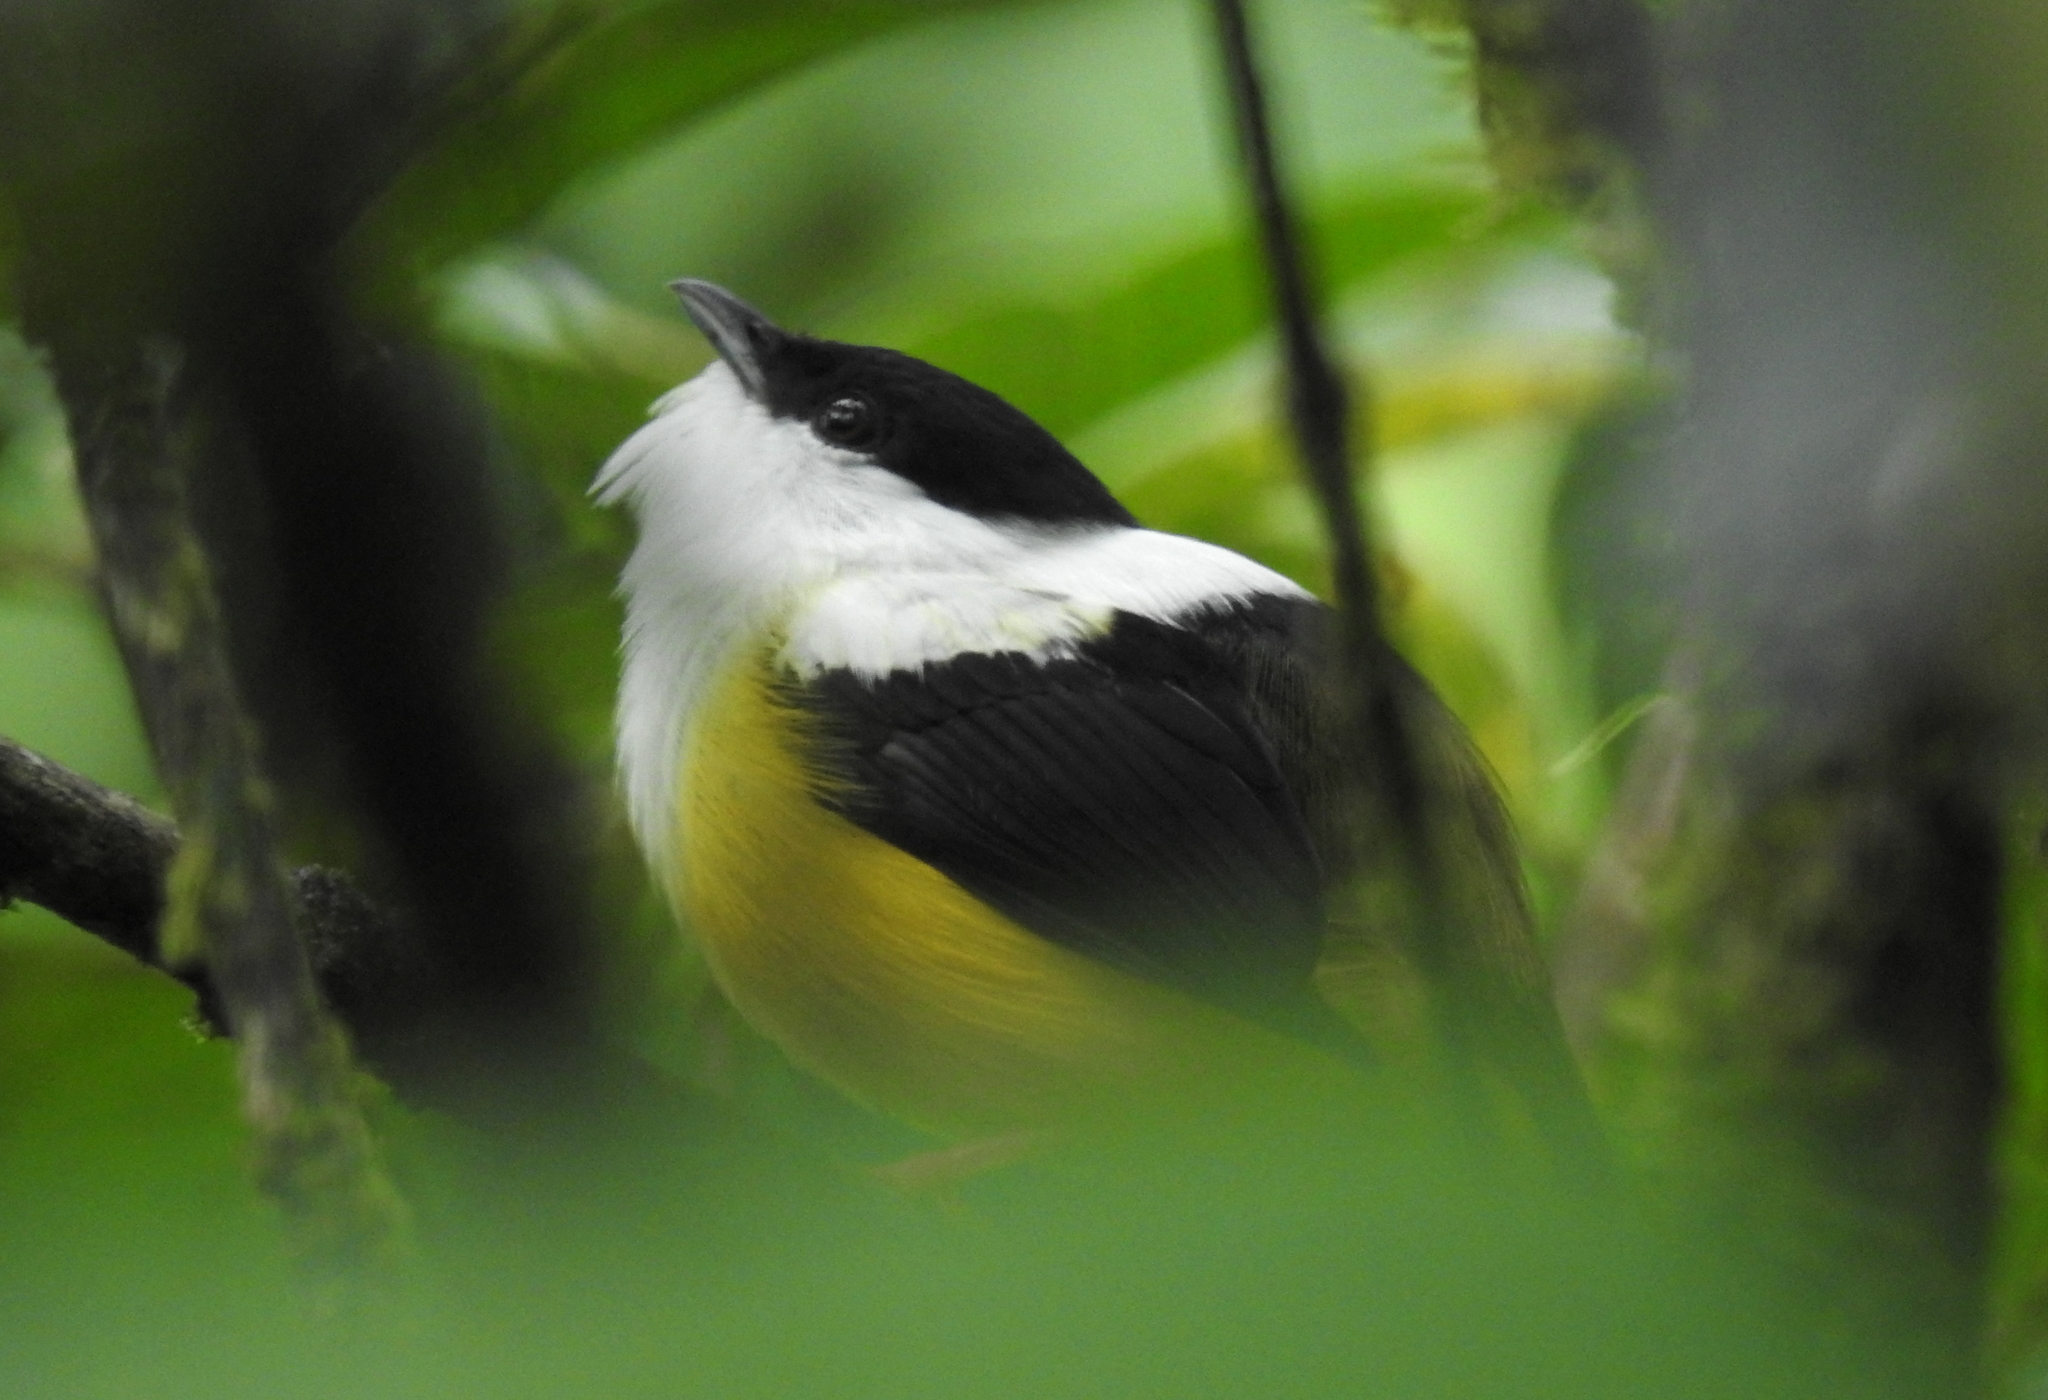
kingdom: Animalia
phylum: Chordata
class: Aves
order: Passeriformes
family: Pipridae
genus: Manacus
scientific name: Manacus candei
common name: White-collared manakin
